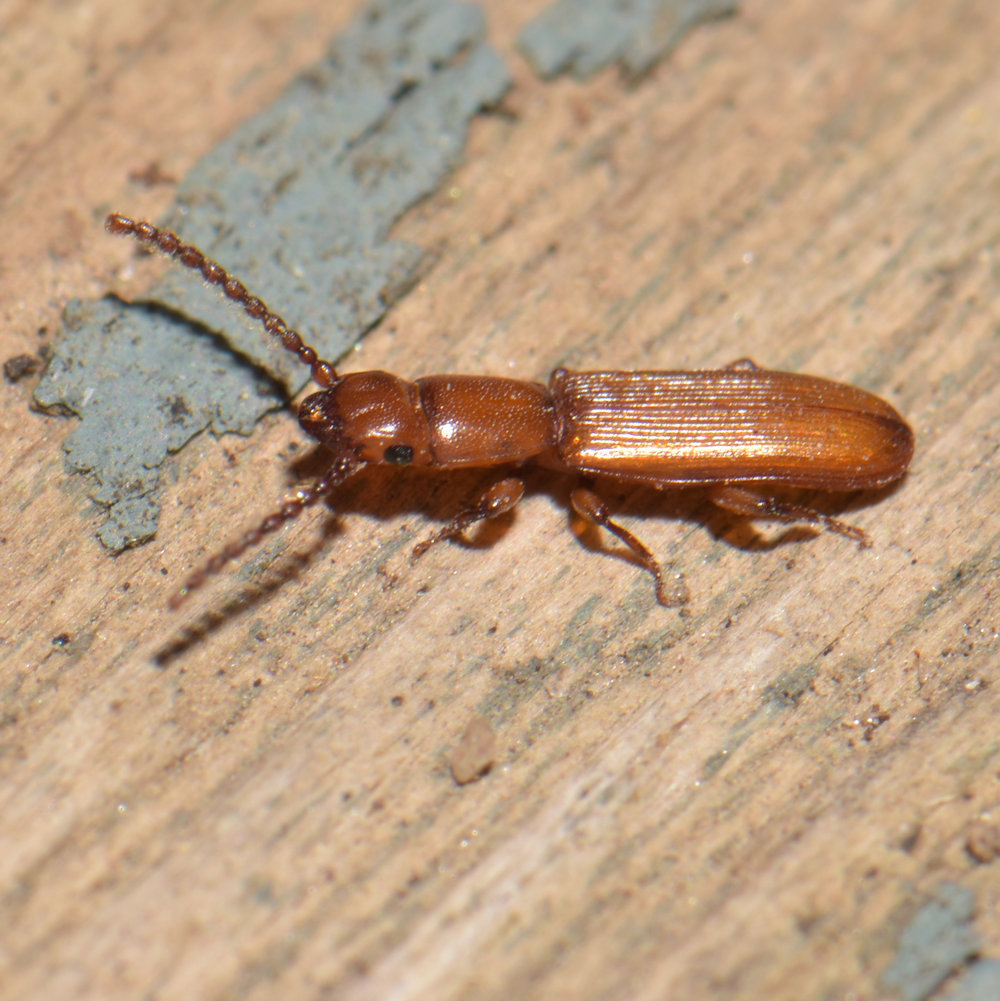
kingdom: Animalia
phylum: Arthropoda
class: Insecta
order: Coleoptera
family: Passandridae
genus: Catogenus
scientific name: Catogenus rufus
